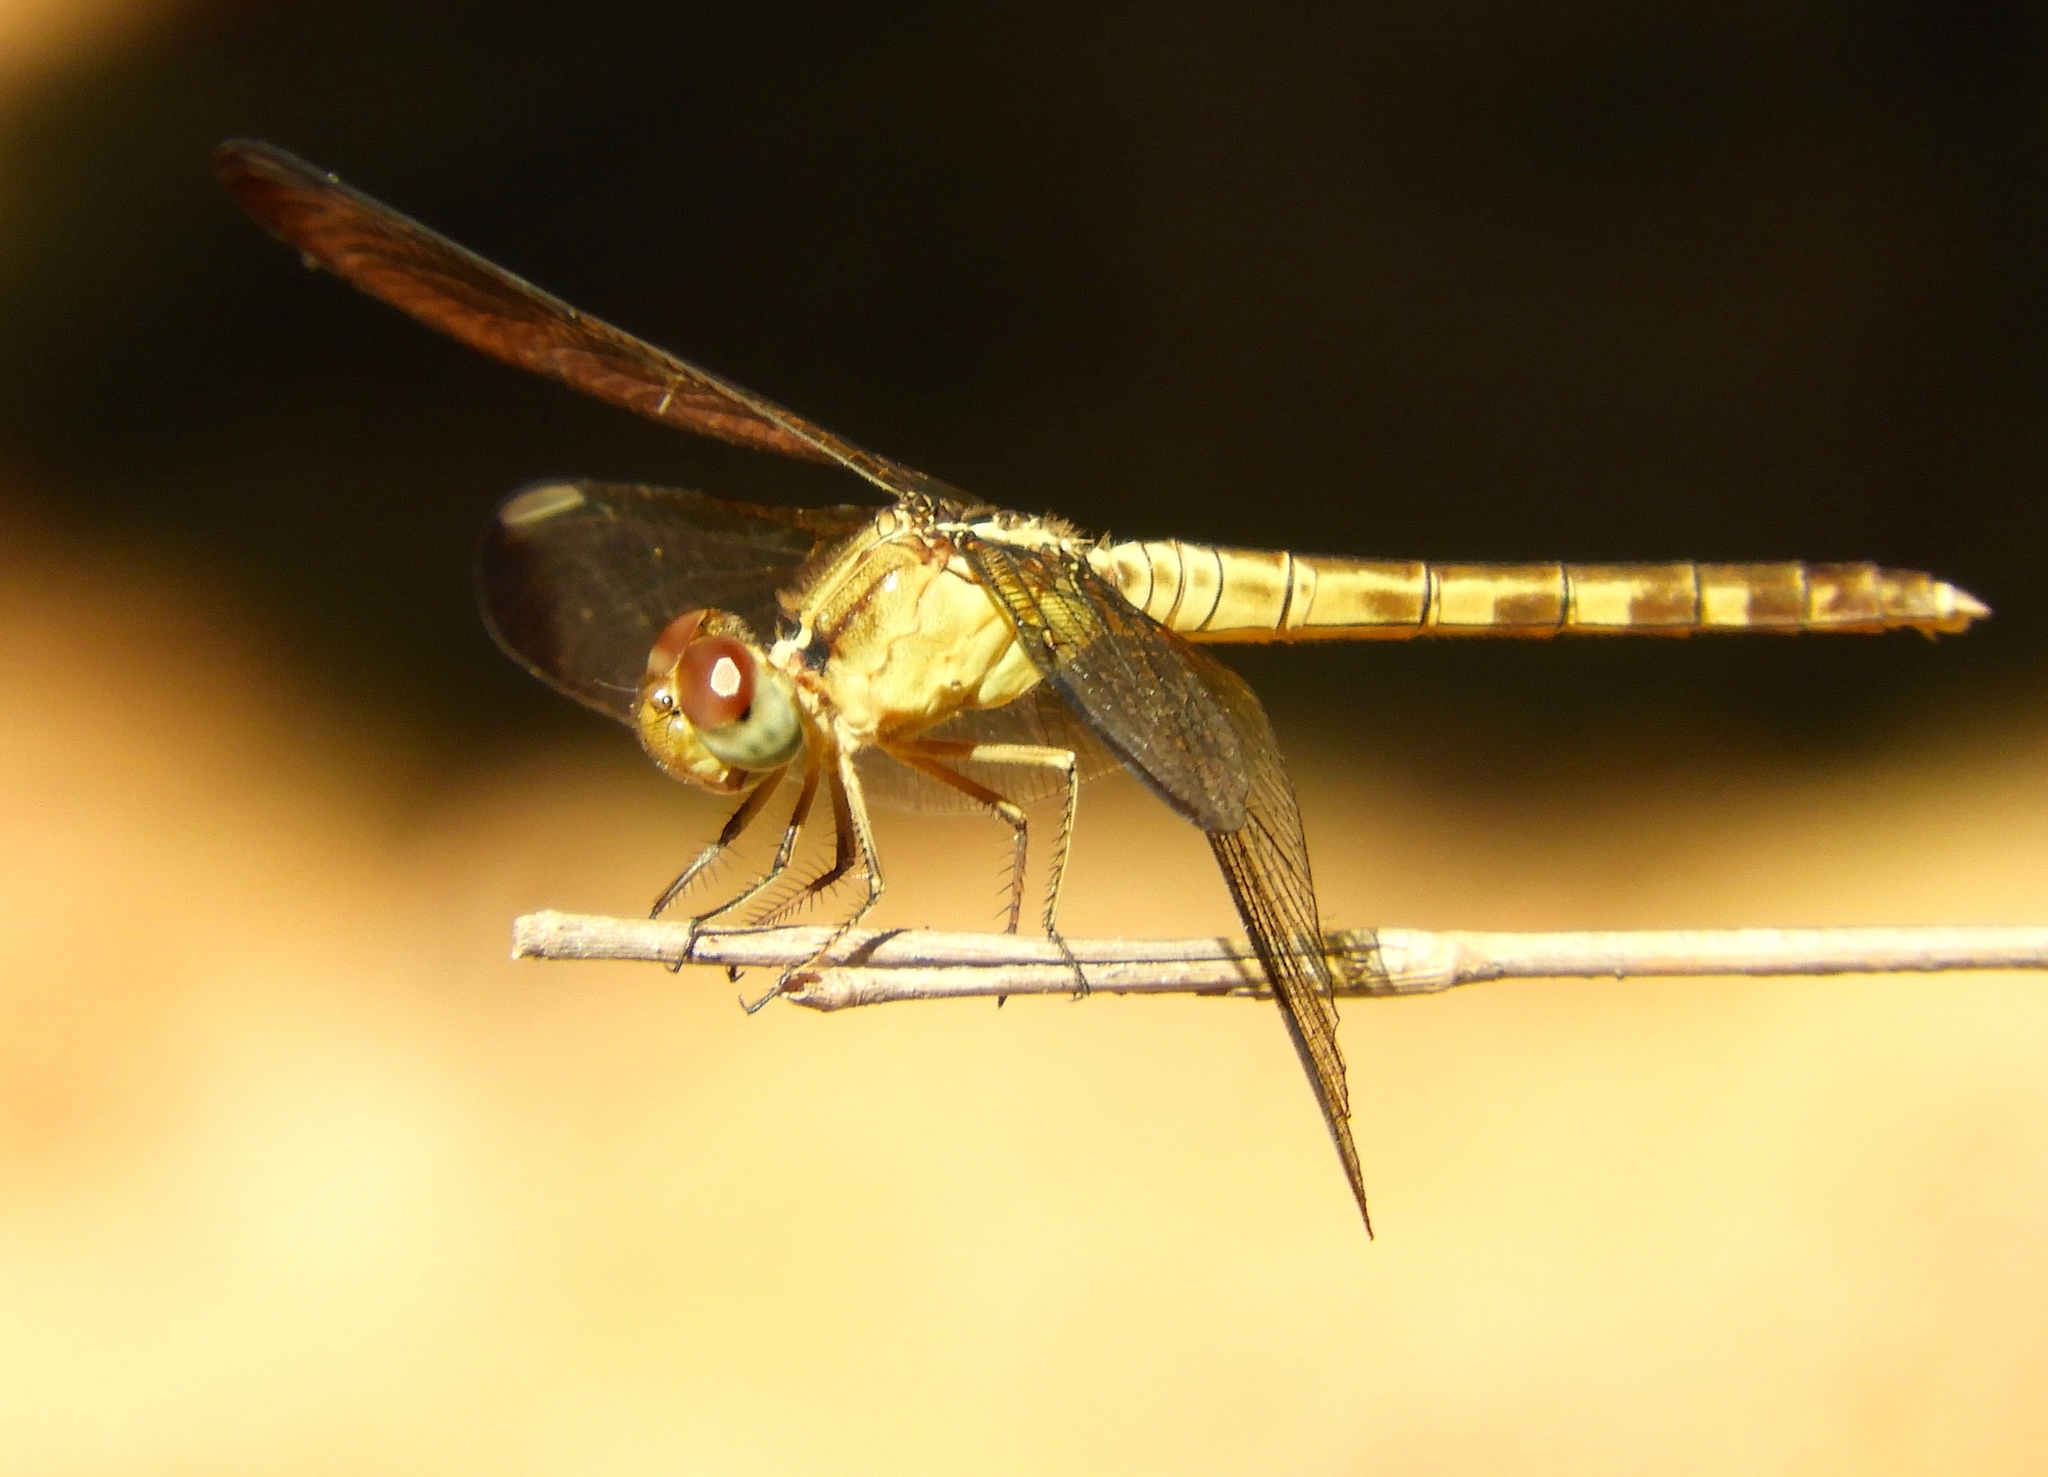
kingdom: Animalia
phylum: Arthropoda
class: Insecta
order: Odonata
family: Libellulidae
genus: Erythrodiplax
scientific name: Erythrodiplax funerea
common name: Black-winged dragonlet
